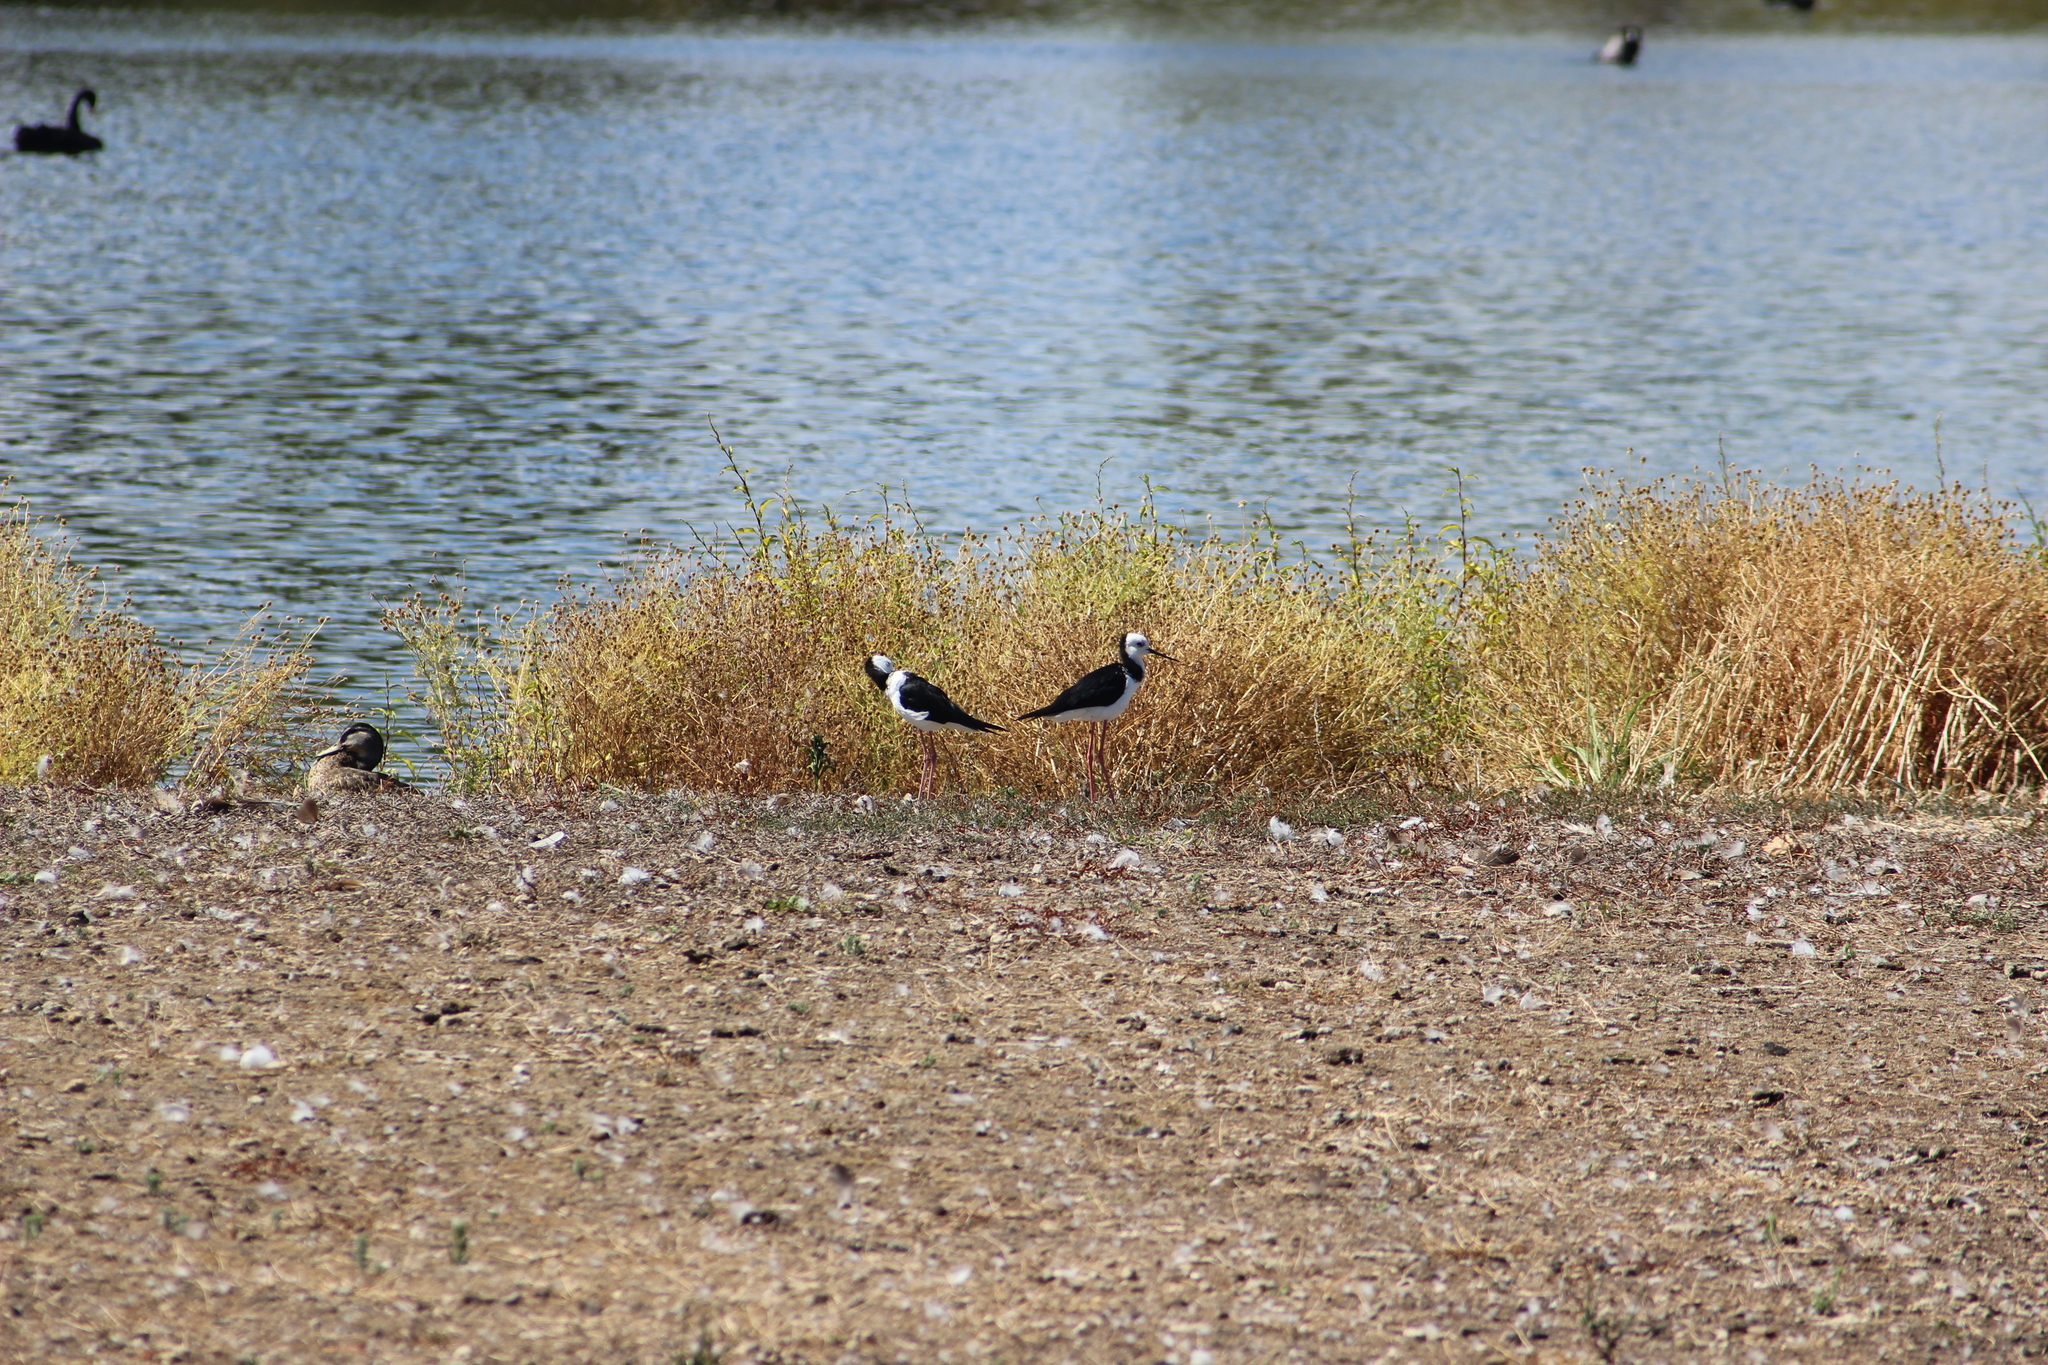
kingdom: Animalia
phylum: Chordata
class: Aves
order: Charadriiformes
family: Recurvirostridae
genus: Himantopus
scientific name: Himantopus leucocephalus
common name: White-headed stilt
